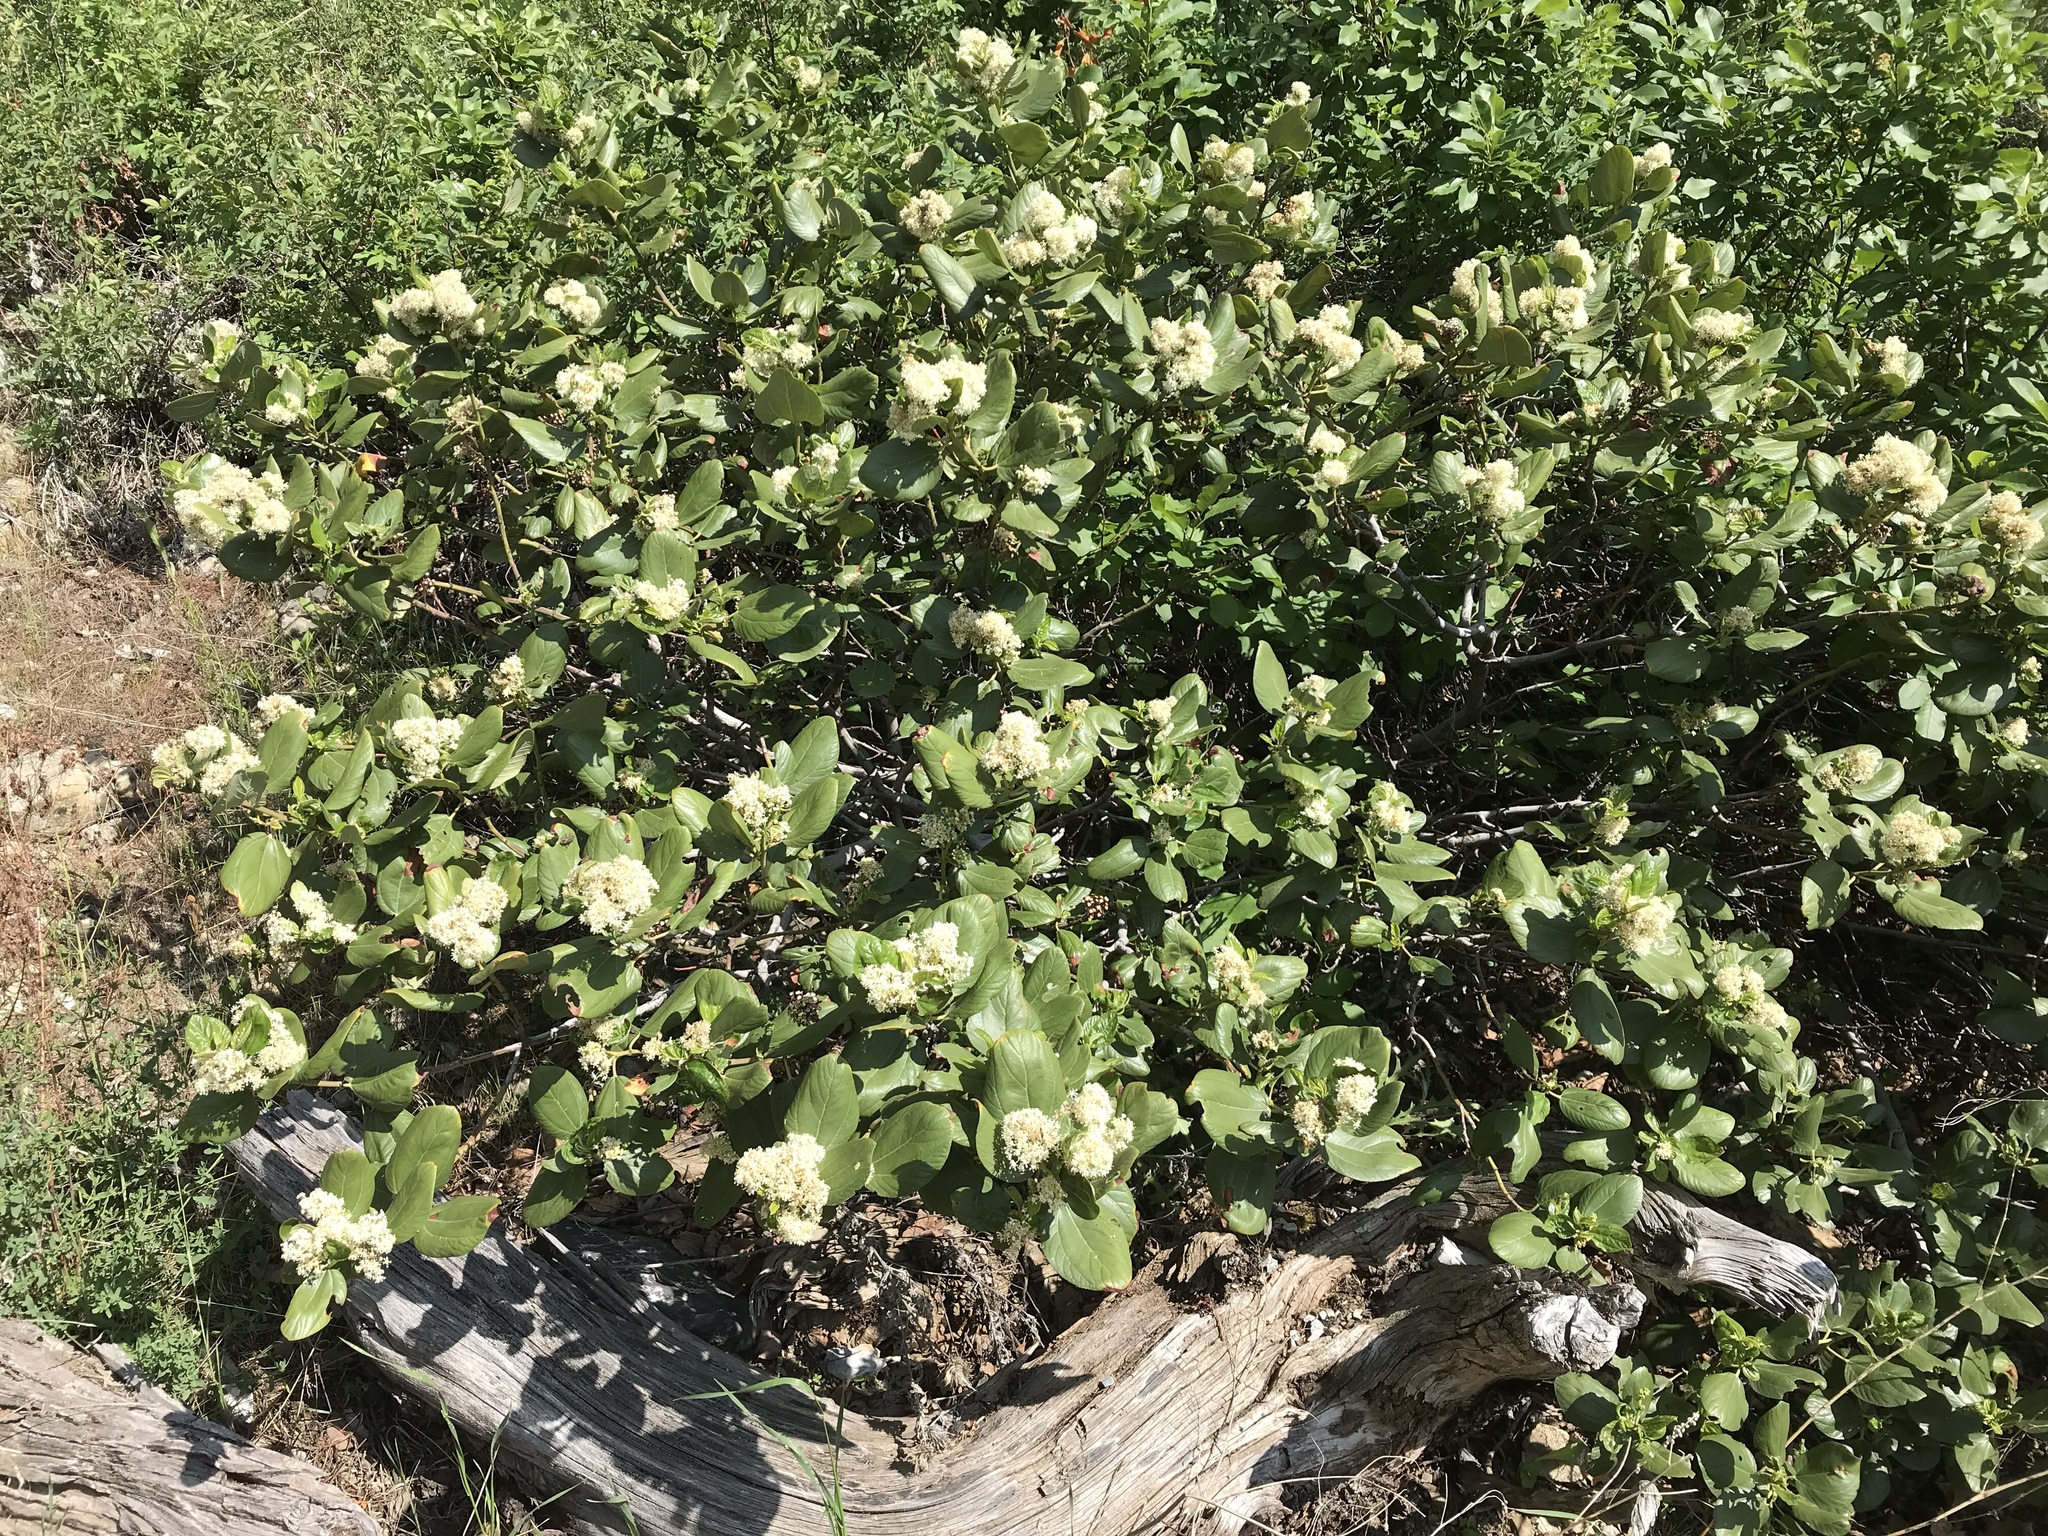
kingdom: Plantae
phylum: Tracheophyta
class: Magnoliopsida
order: Rosales
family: Rhamnaceae
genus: Ceanothus
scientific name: Ceanothus velutinus
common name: Snowbrush
